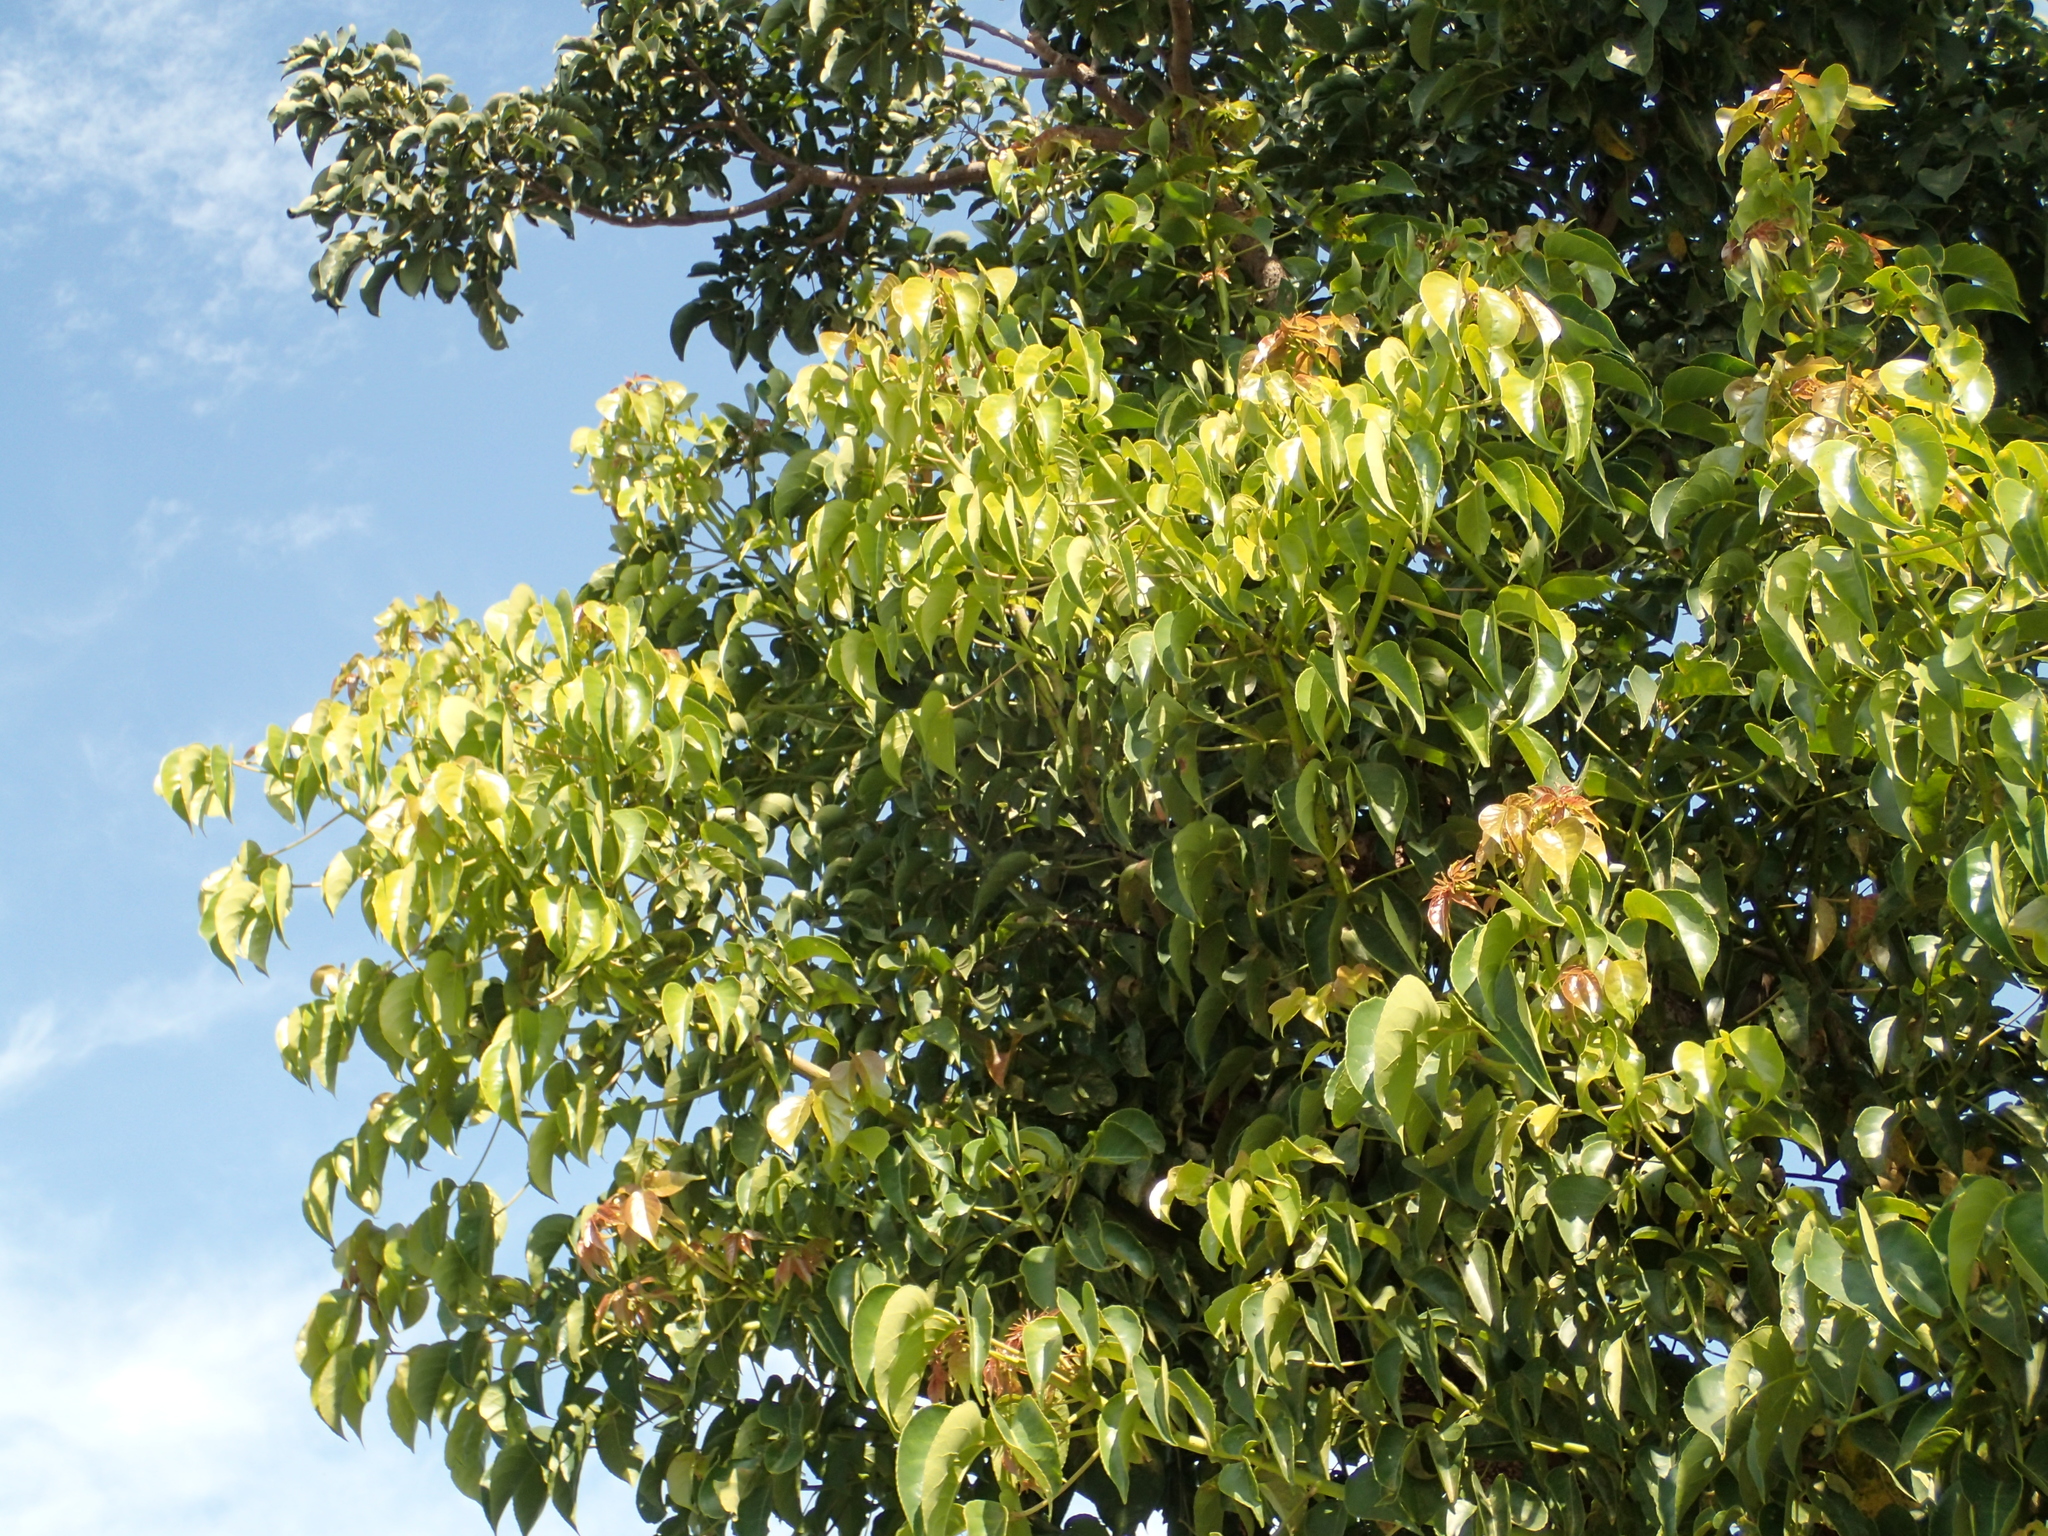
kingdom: Plantae
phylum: Tracheophyta
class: Magnoliopsida
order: Malpighiales
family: Phyllanthaceae
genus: Bischofia
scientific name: Bischofia javanica
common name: Javanese bishopwood
